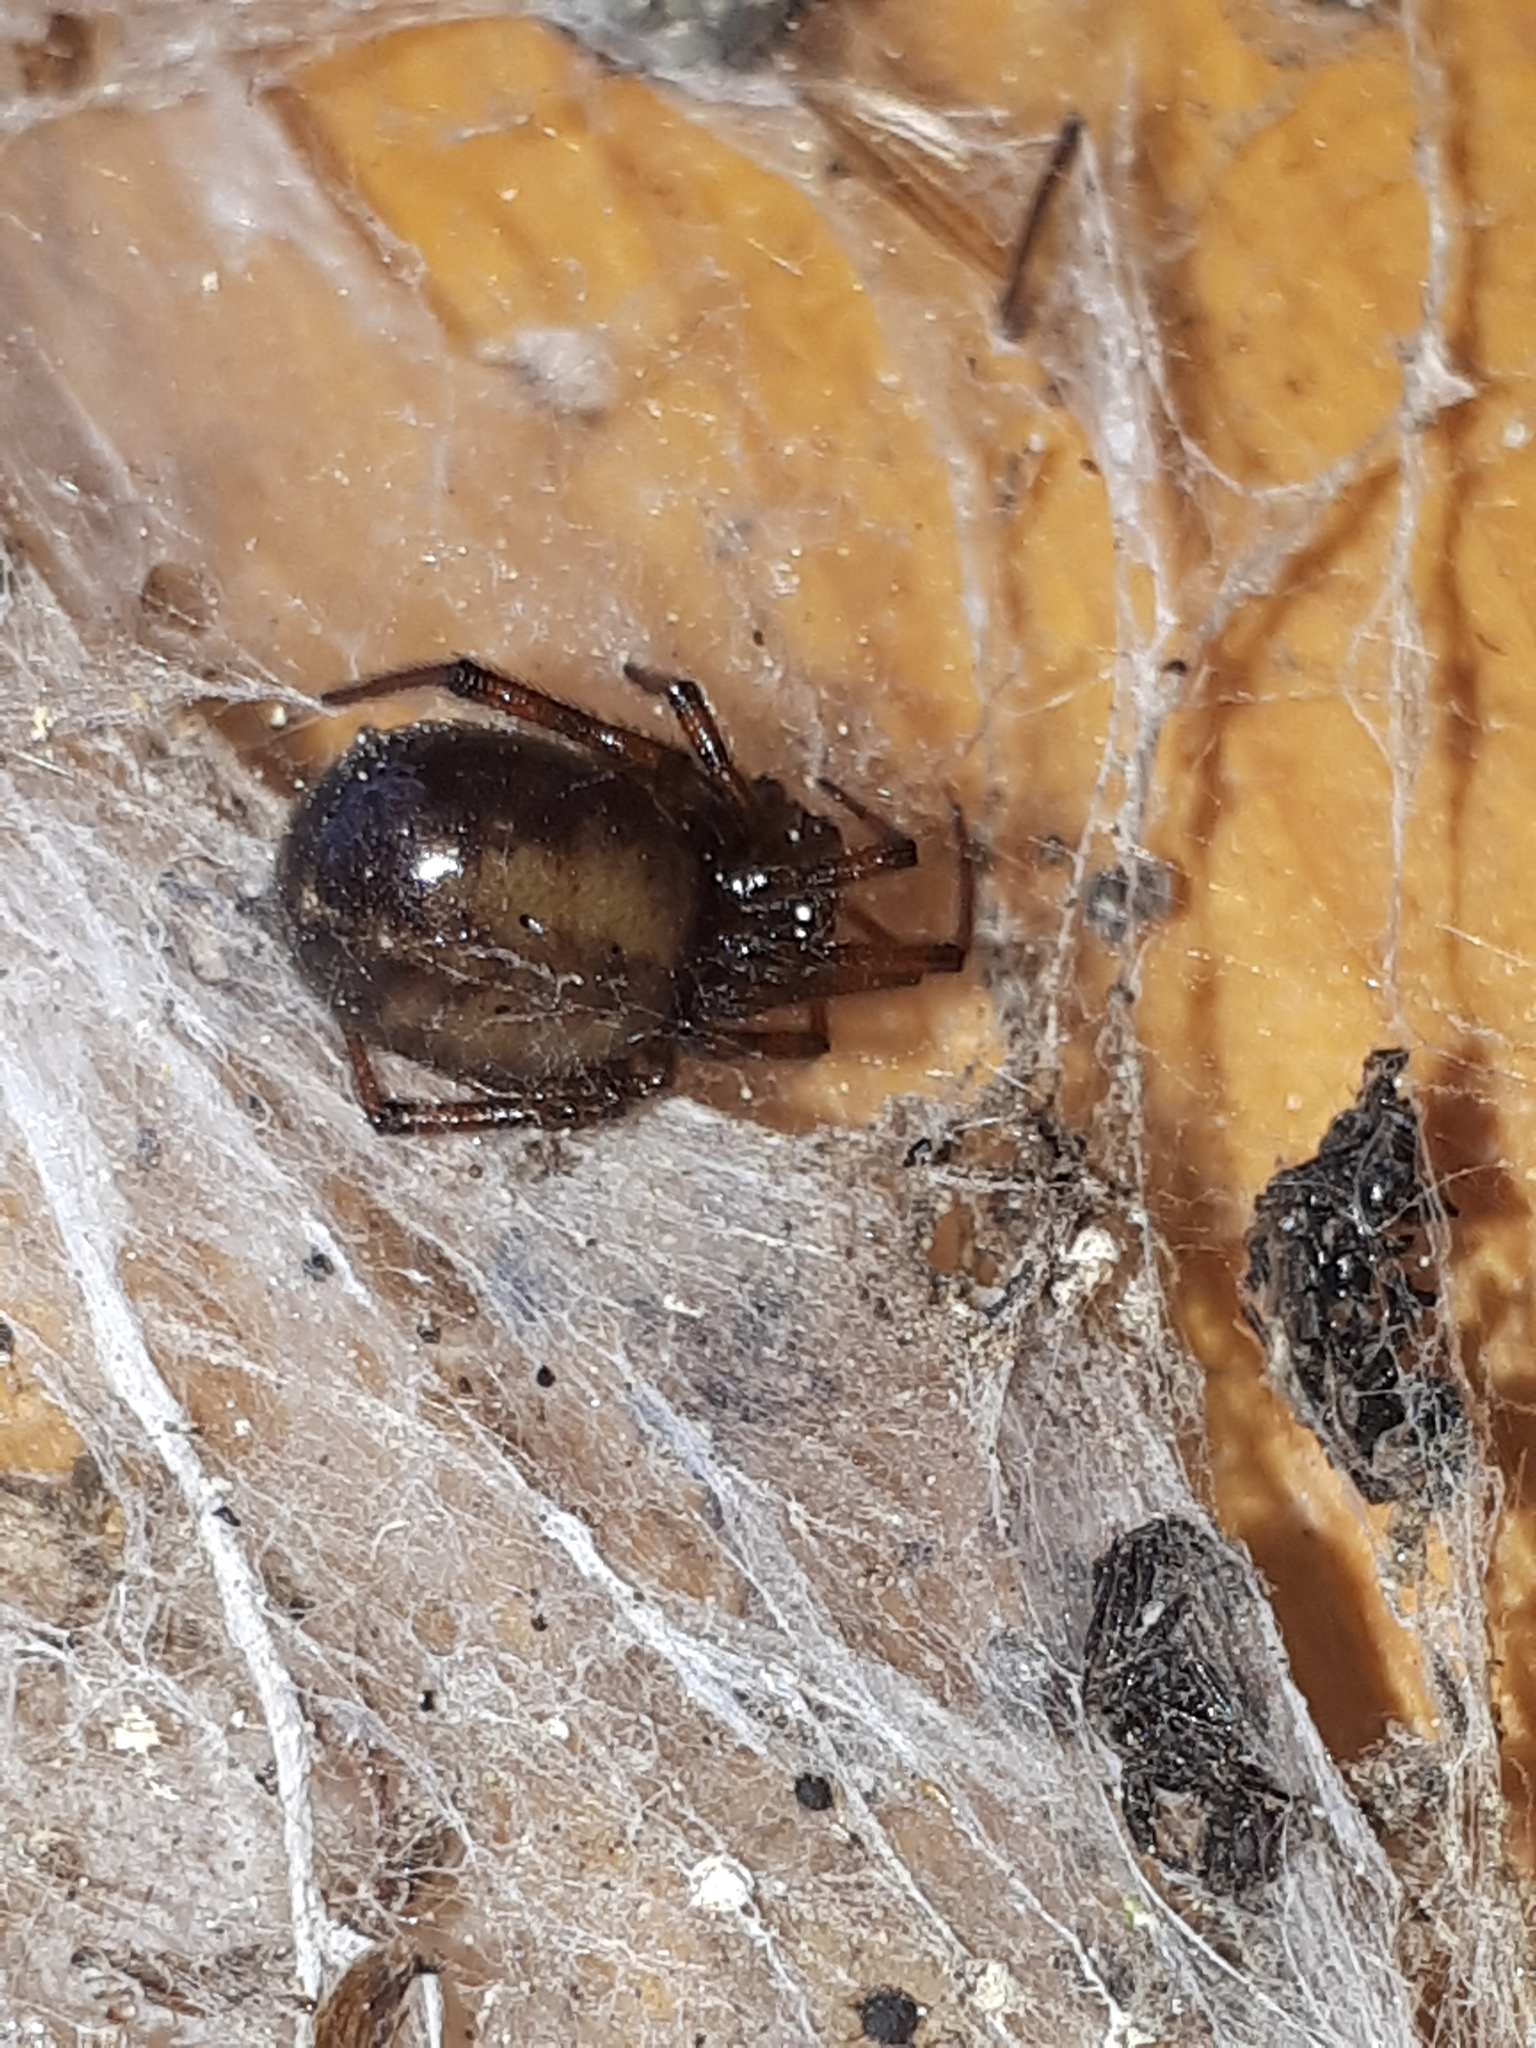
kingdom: Animalia
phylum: Arthropoda
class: Arachnida
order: Araneae
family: Theridiidae
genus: Steatoda
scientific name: Steatoda bipunctata
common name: False widow
